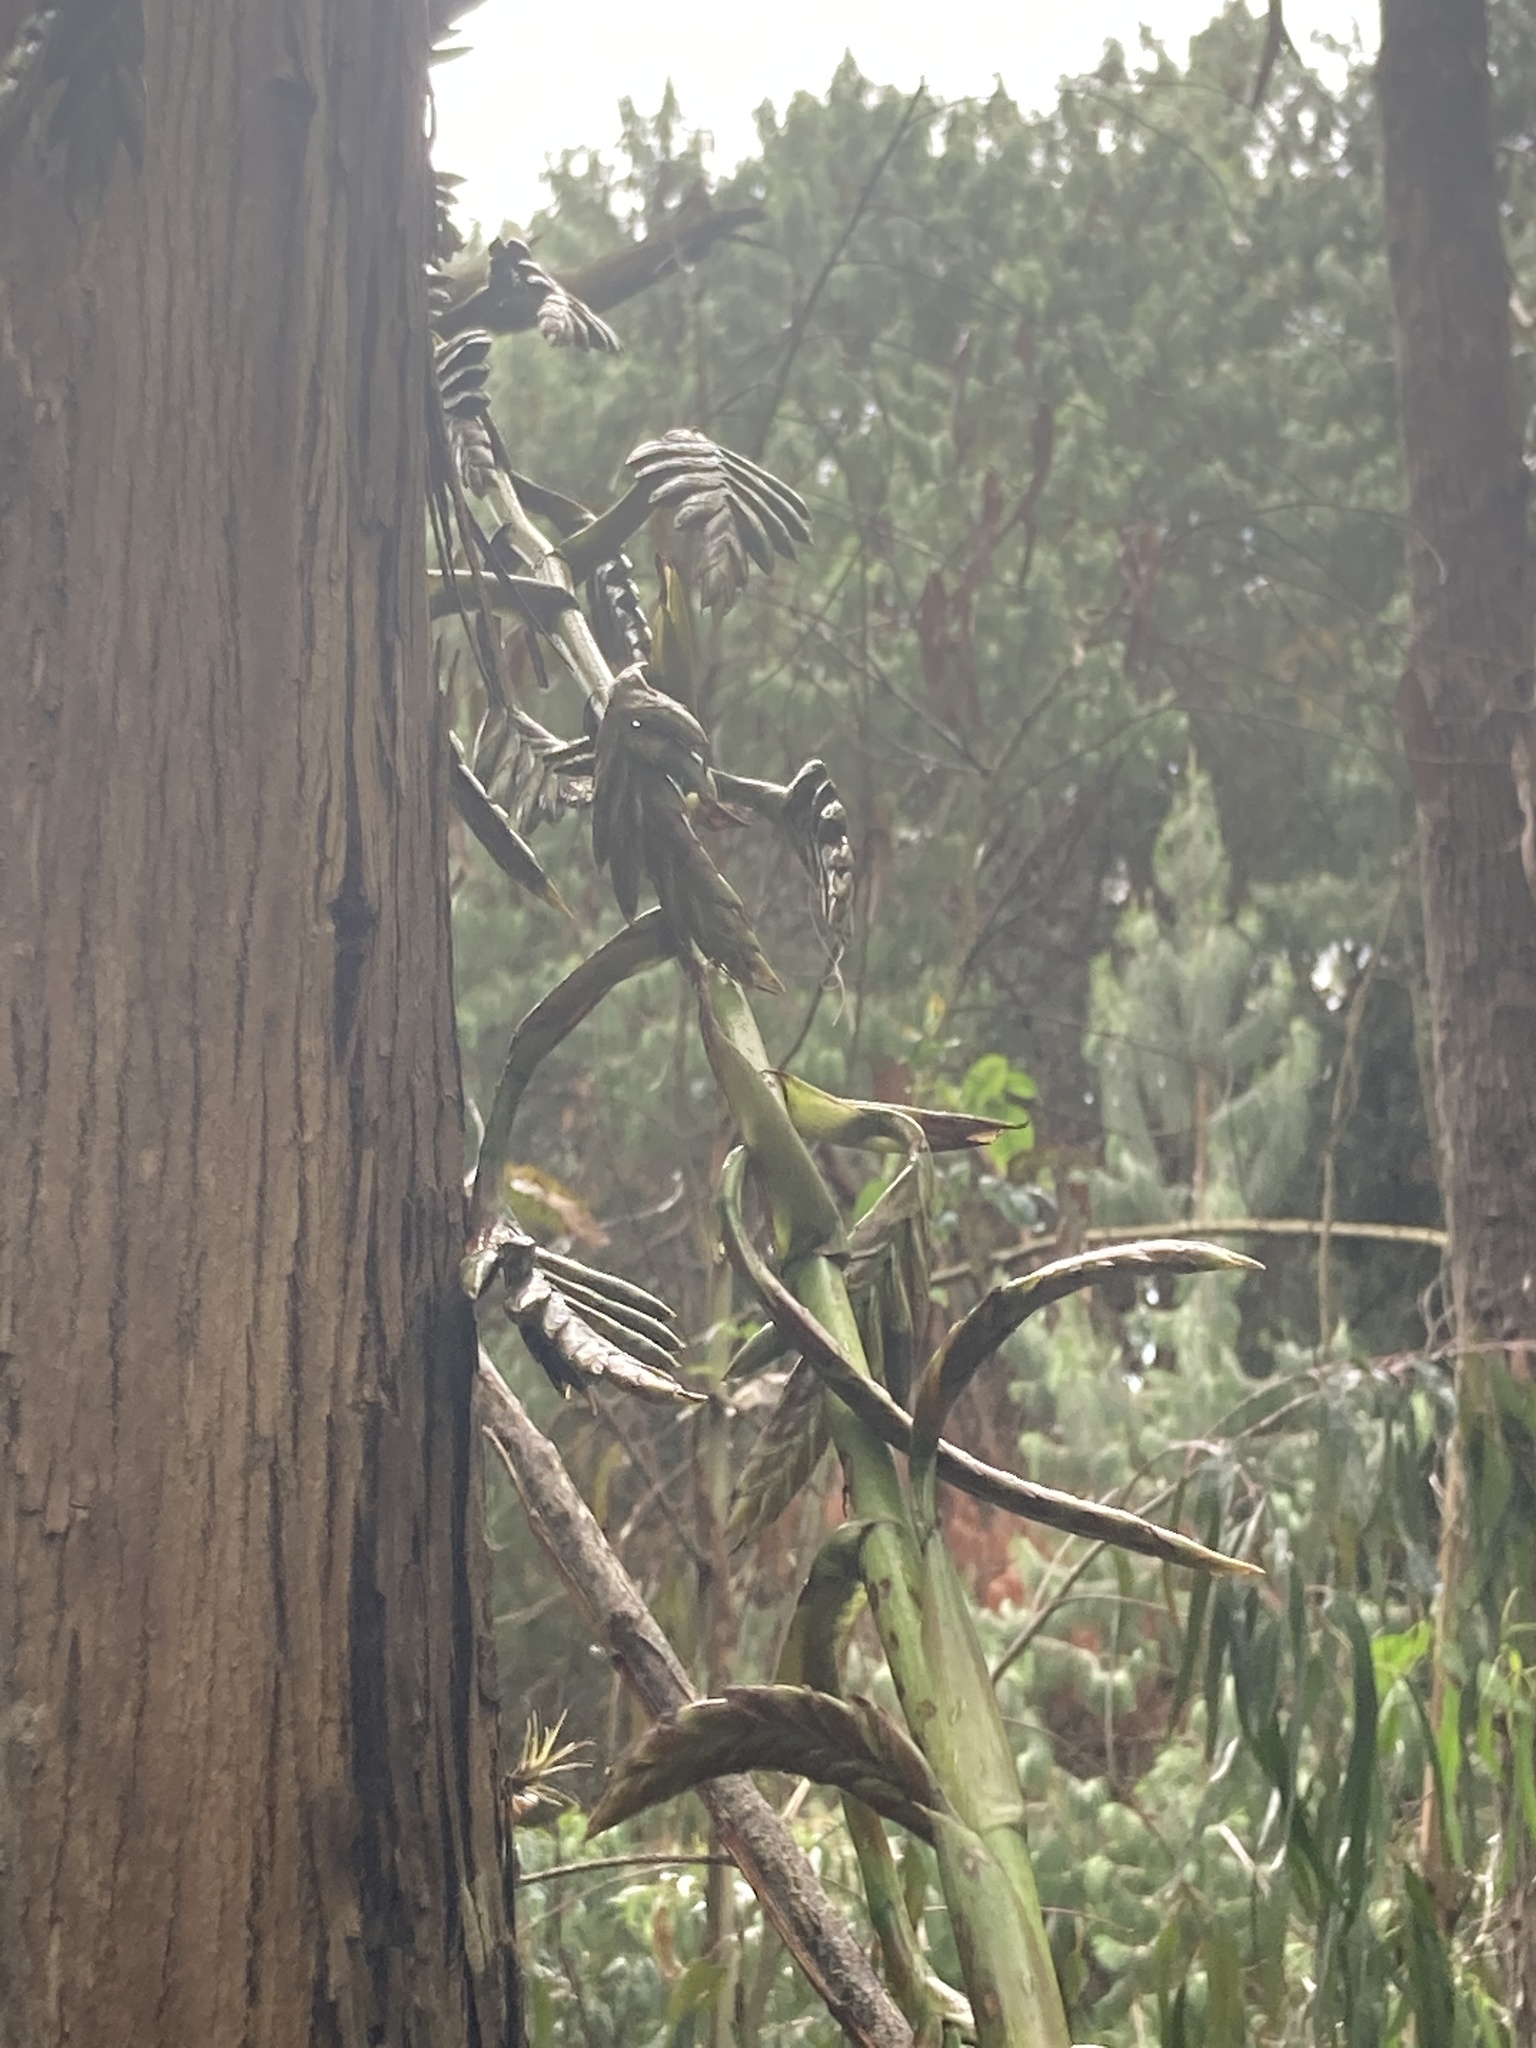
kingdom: Plantae
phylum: Tracheophyta
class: Liliopsida
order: Poales
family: Bromeliaceae
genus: Tillandsia
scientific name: Tillandsia denudata
